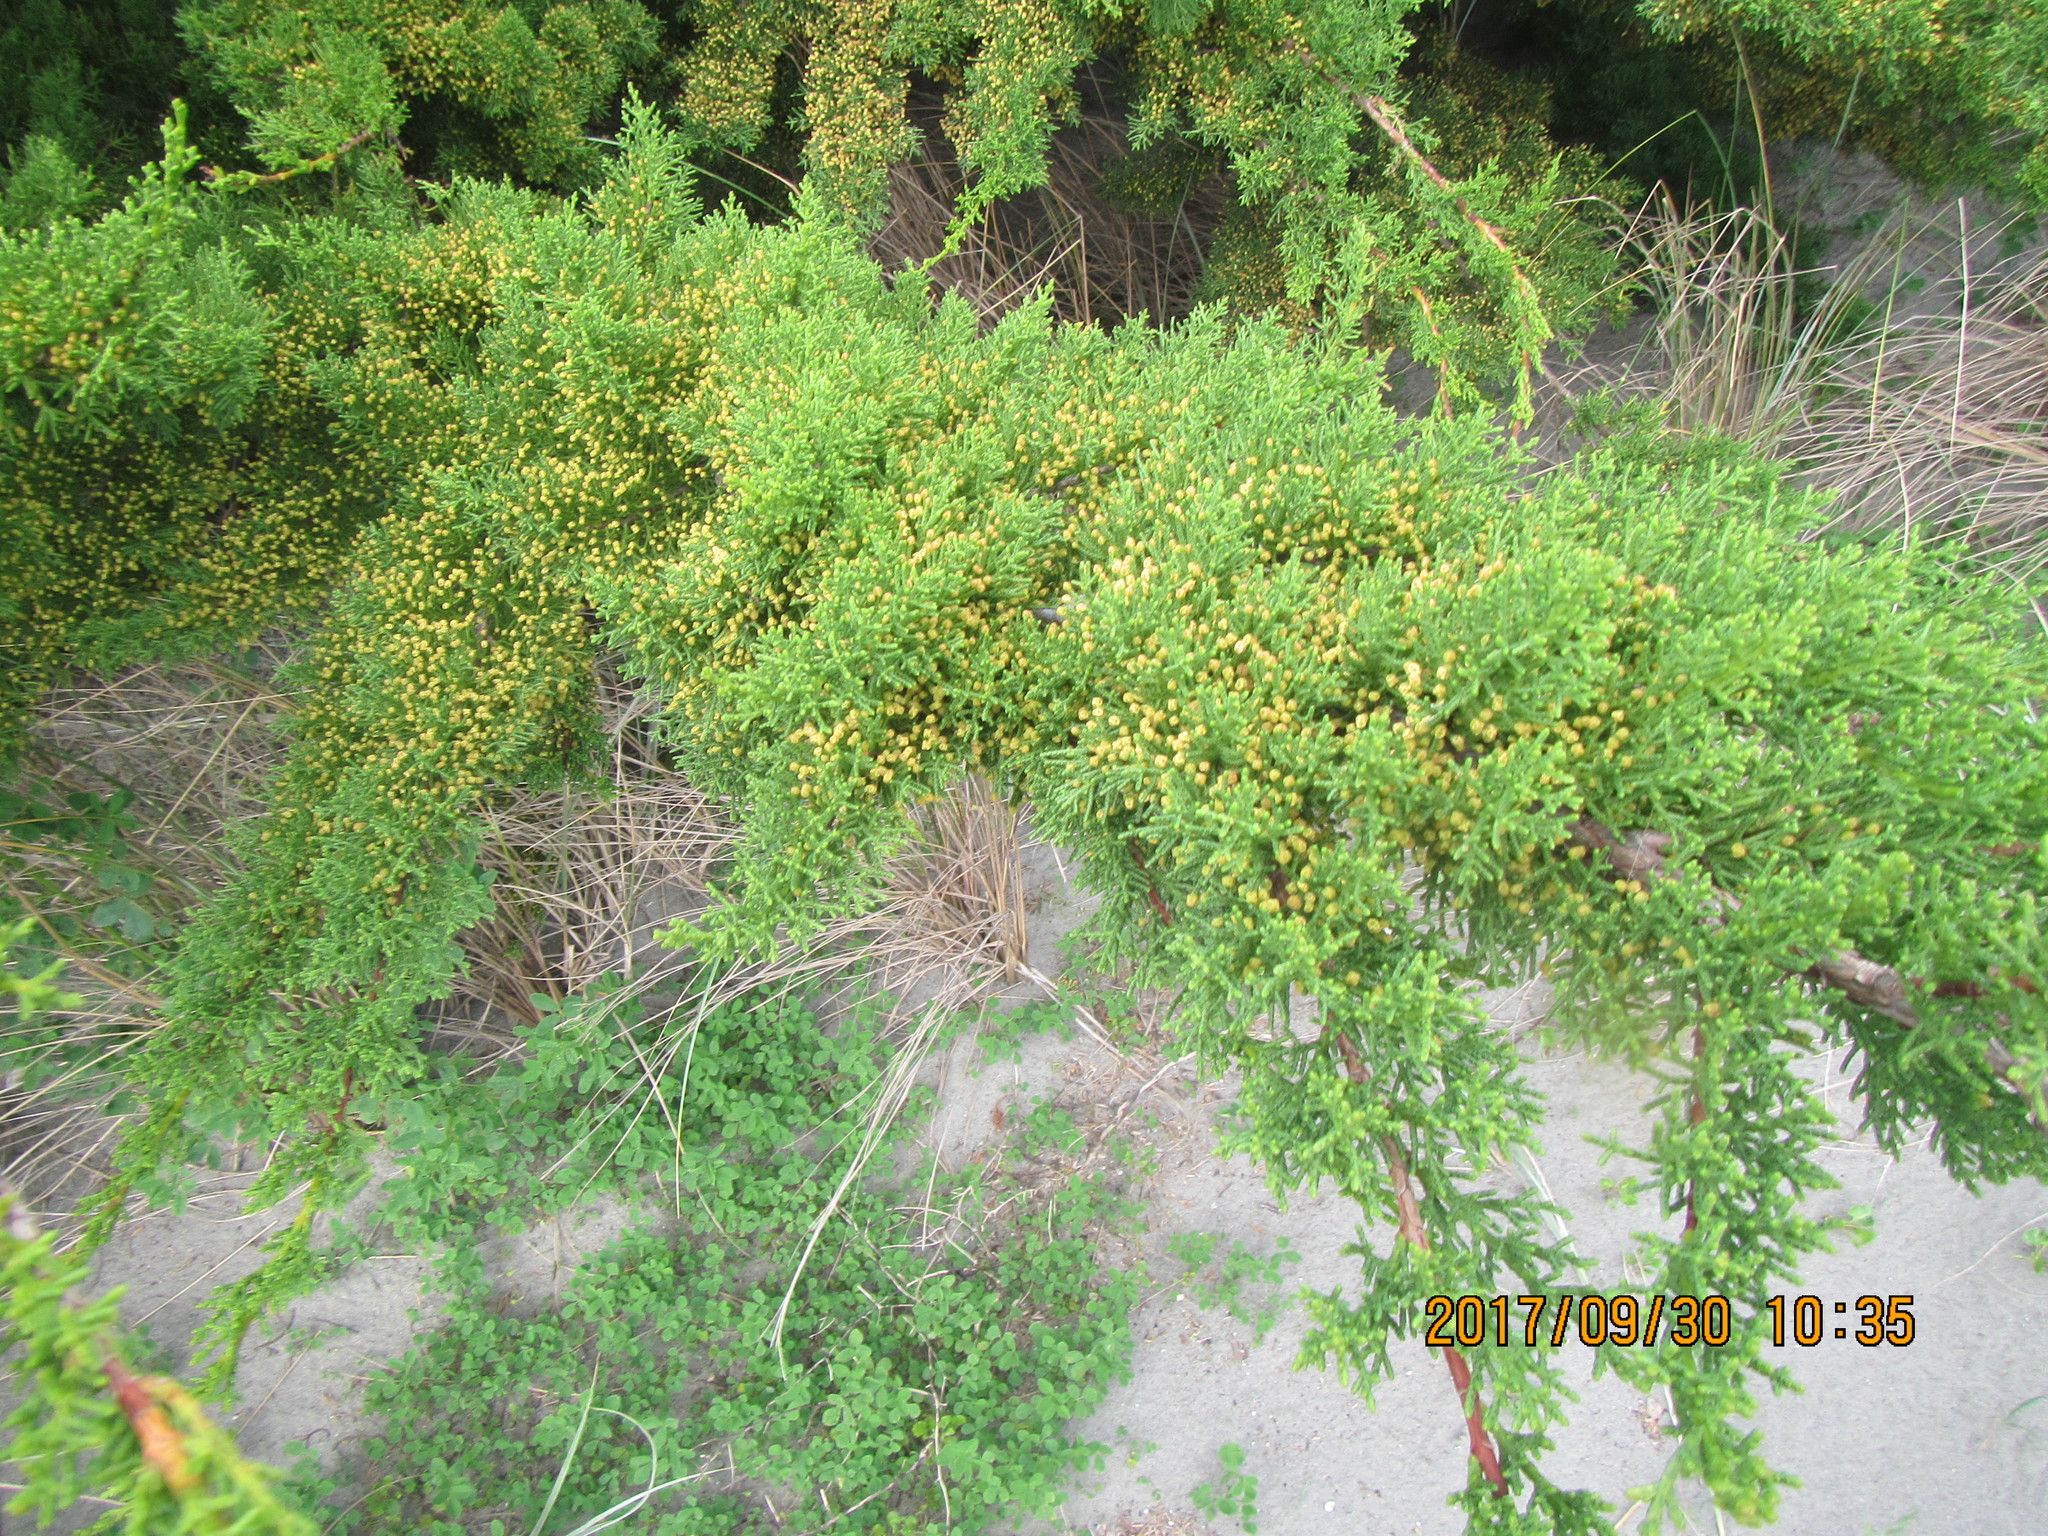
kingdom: Plantae
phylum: Tracheophyta
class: Pinopsida
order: Pinales
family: Cupressaceae
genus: Cupressus
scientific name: Cupressus macrocarpa
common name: Monterey cypress
